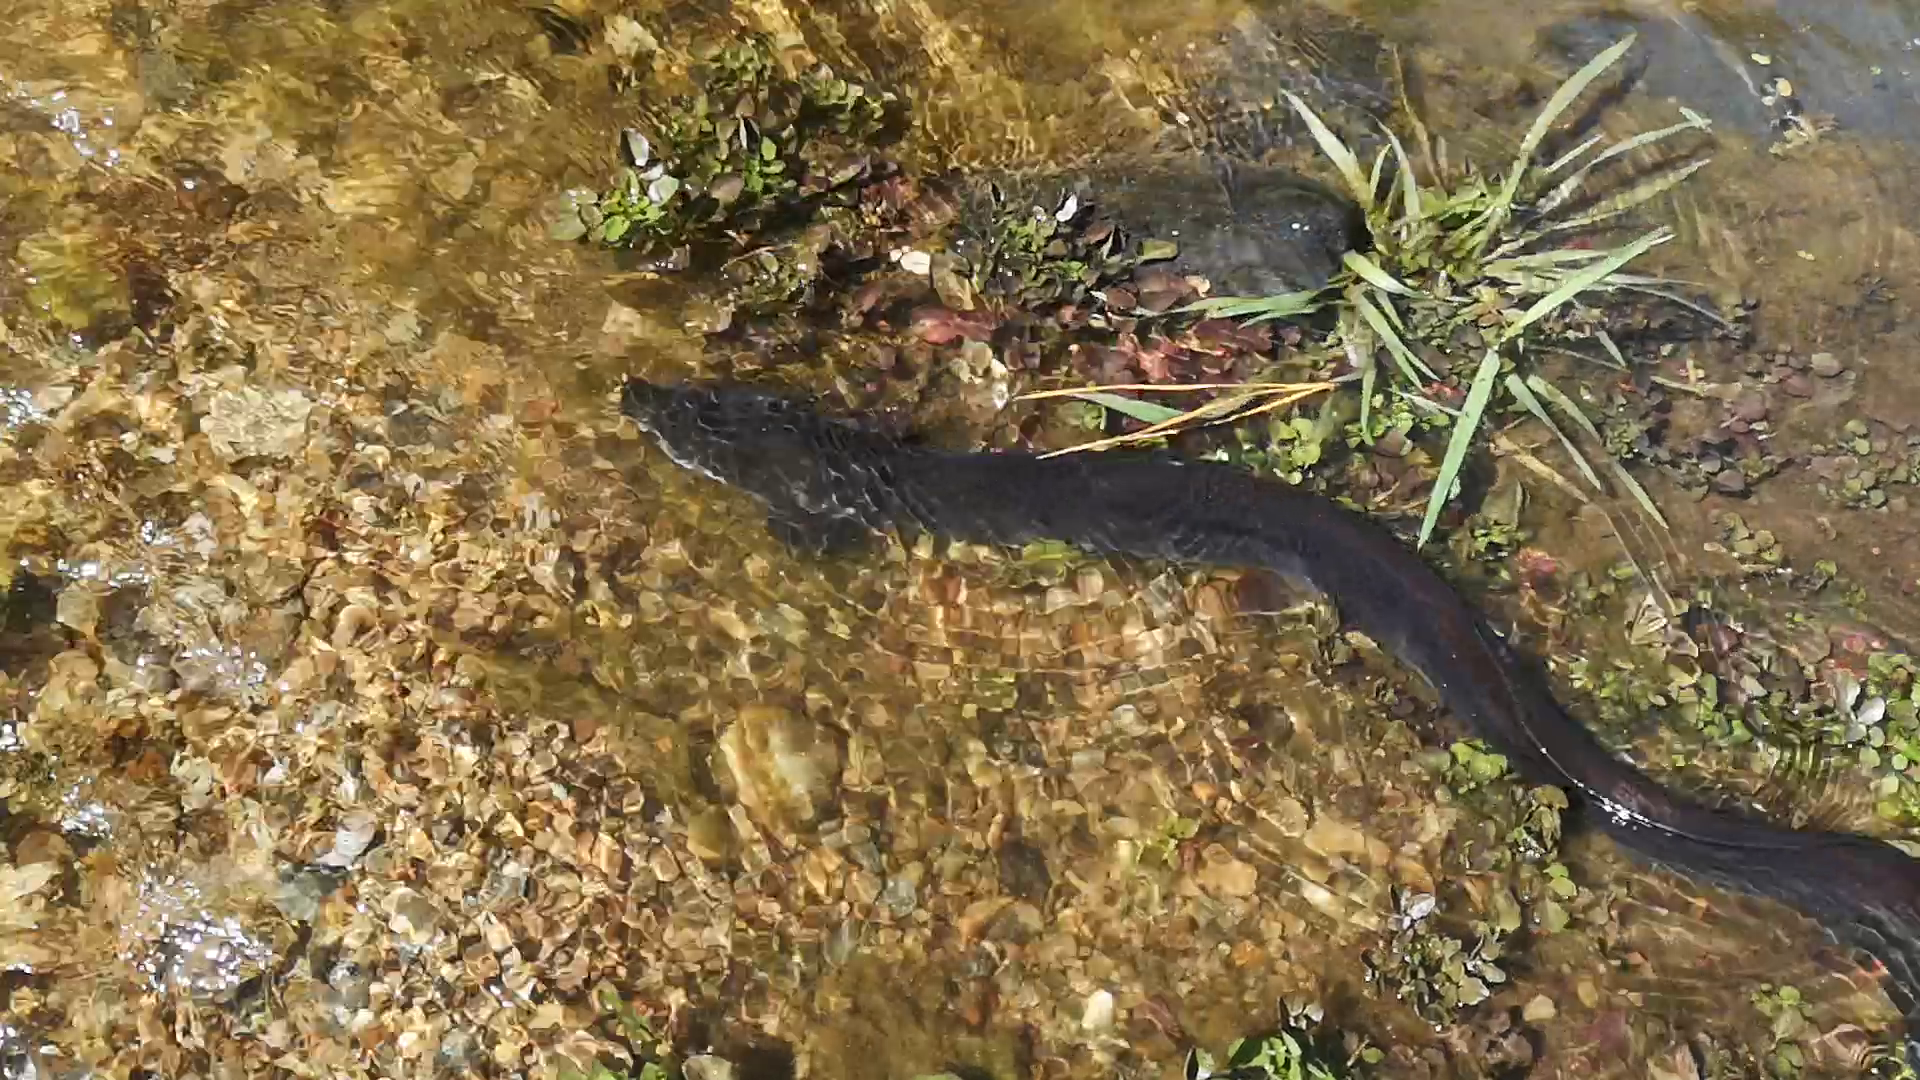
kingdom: Animalia
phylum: Chordata
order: Anguilliformes
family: Anguillidae
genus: Anguilla
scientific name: Anguilla dieffenbachii
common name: New zealand longfin eel
